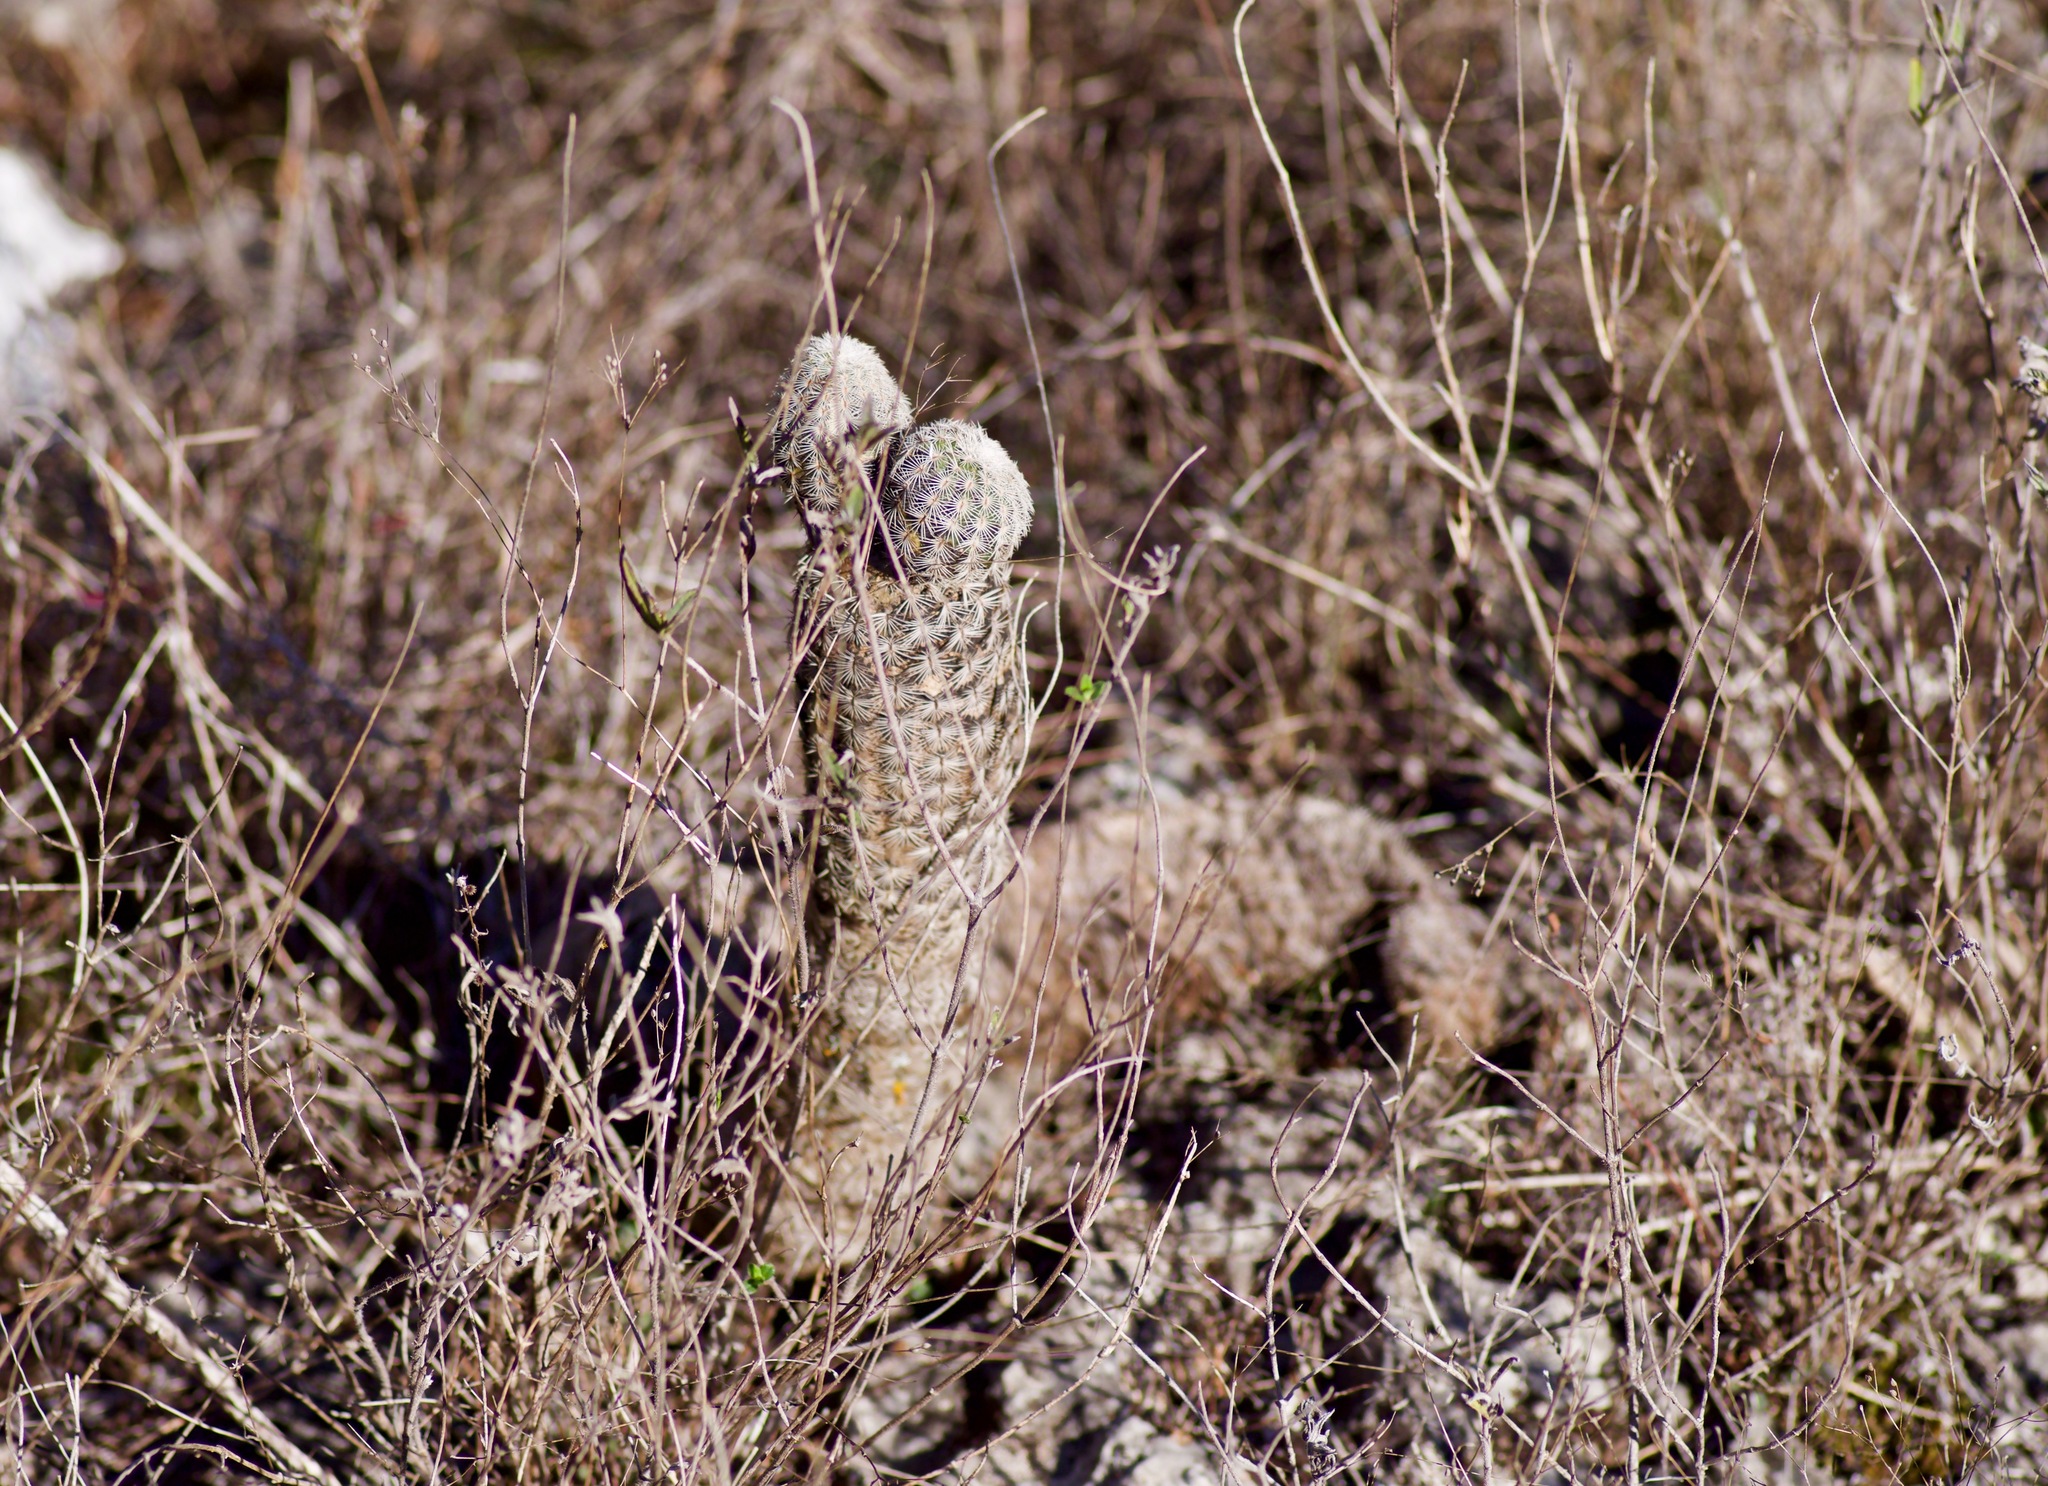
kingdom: Plantae
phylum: Tracheophyta
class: Magnoliopsida
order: Caryophyllales
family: Cactaceae
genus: Echinocereus
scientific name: Echinocereus reichenbachii
